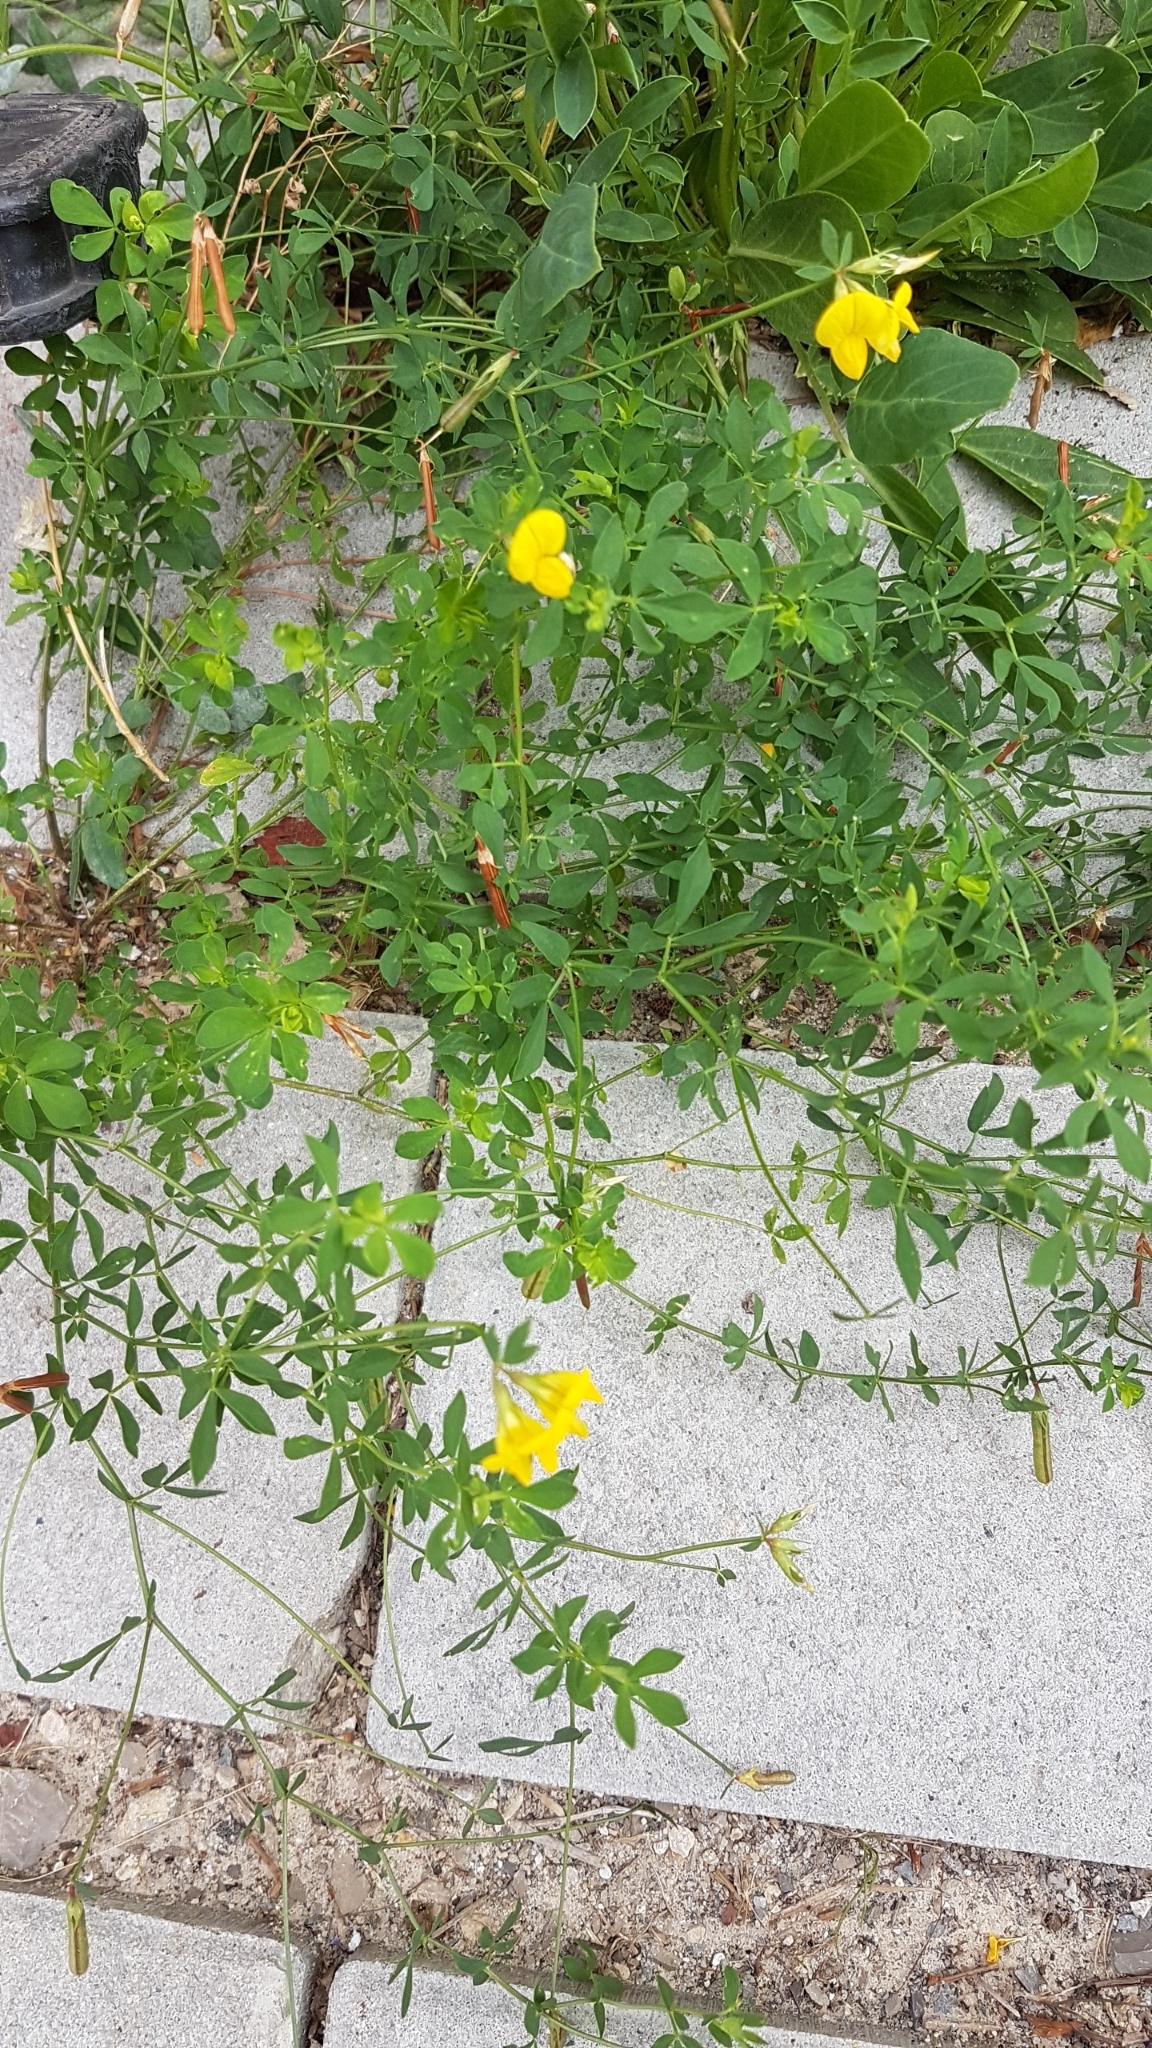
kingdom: Plantae
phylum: Tracheophyta
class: Magnoliopsida
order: Fabales
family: Fabaceae
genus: Lotus
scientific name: Lotus corniculatus
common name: Common bird's-foot-trefoil
